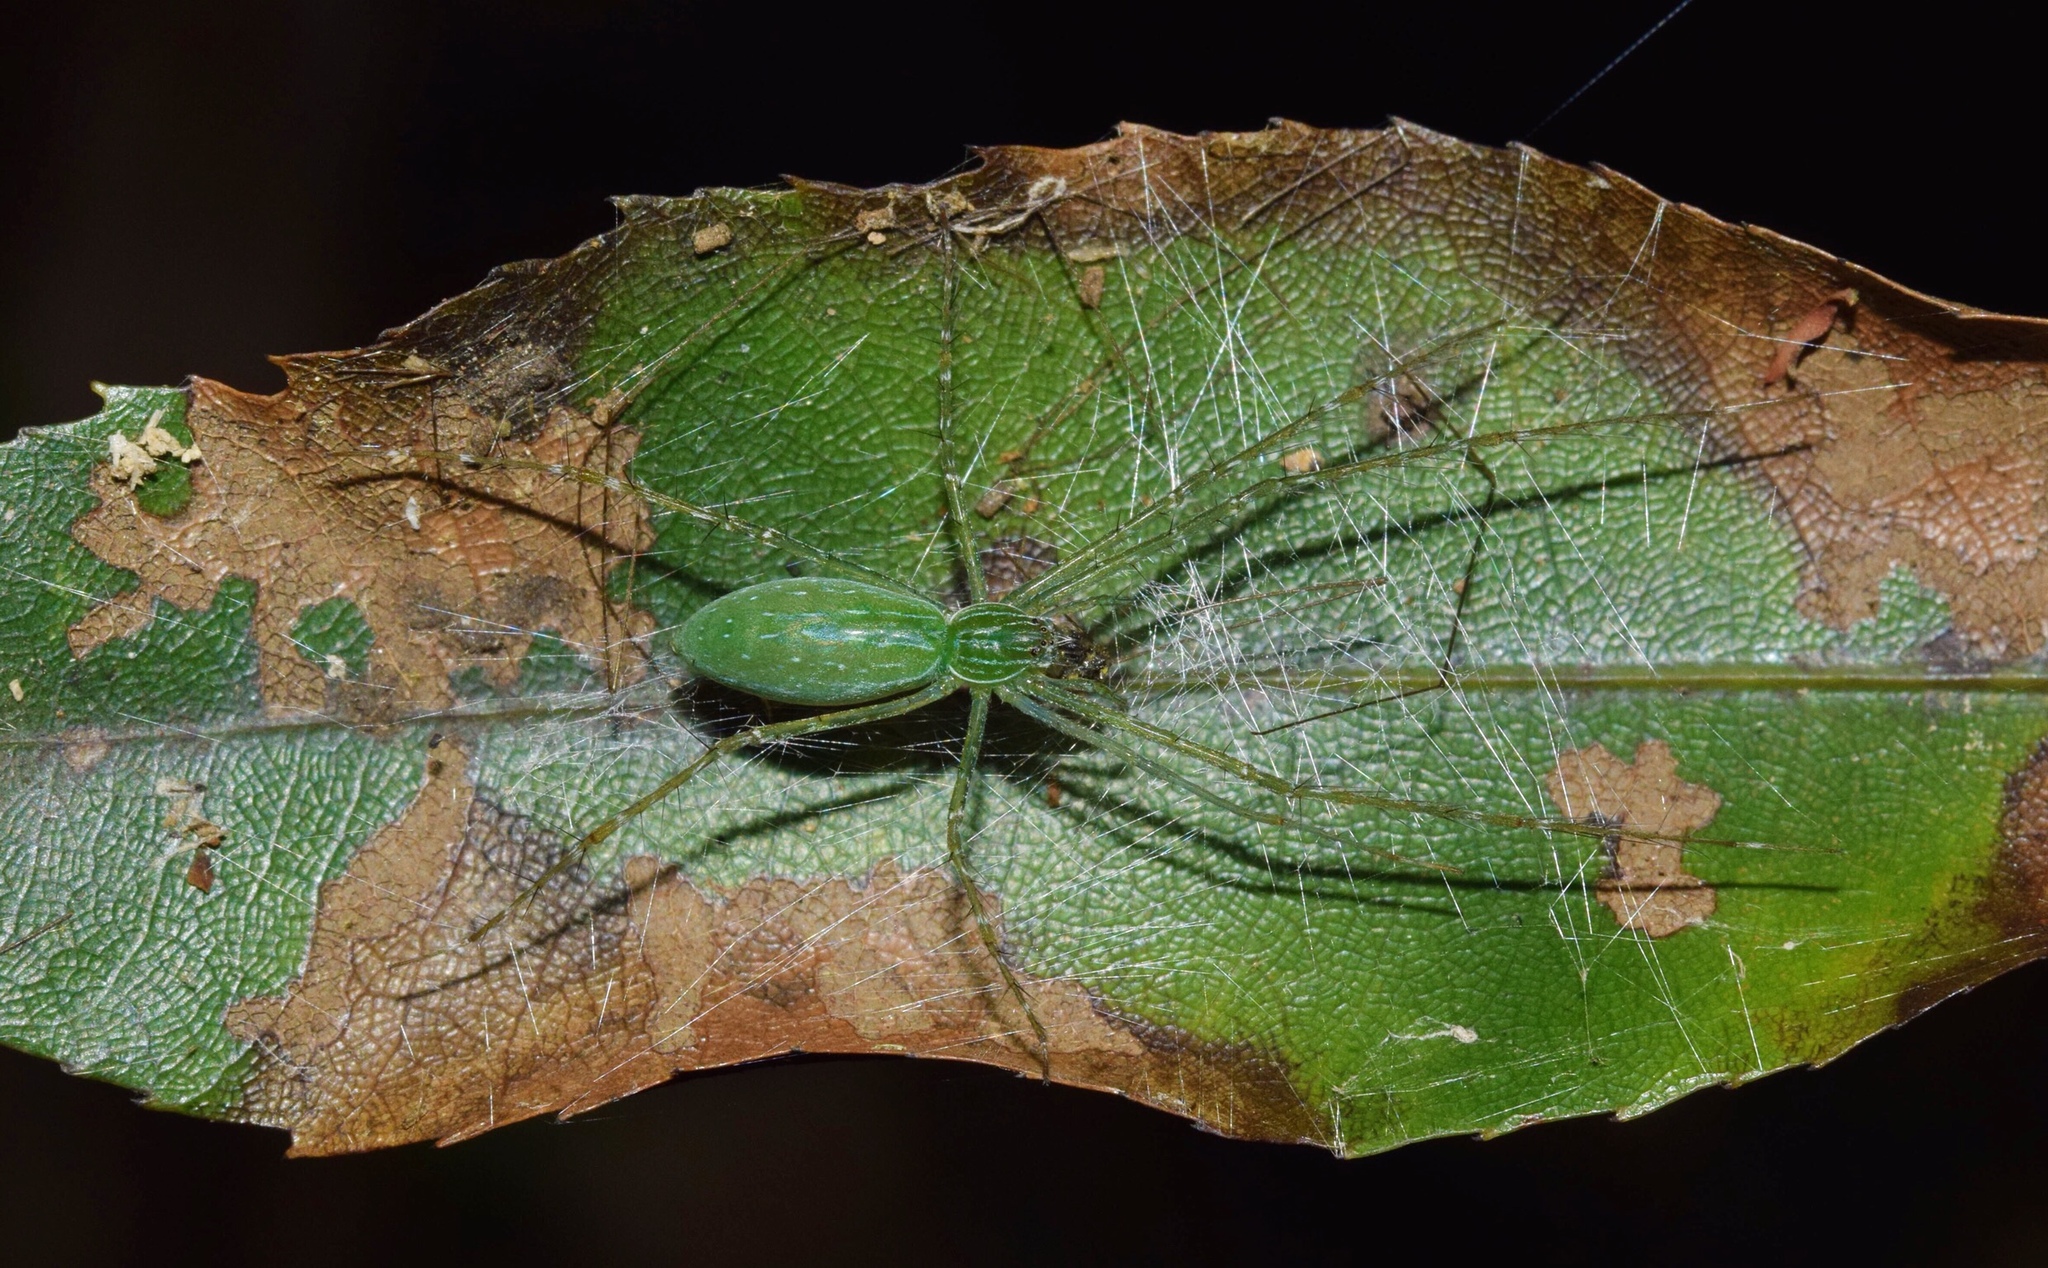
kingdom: Animalia
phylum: Arthropoda
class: Arachnida
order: Araneae
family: Pisauridae
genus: Hygropoda
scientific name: Hygropoda tangana
